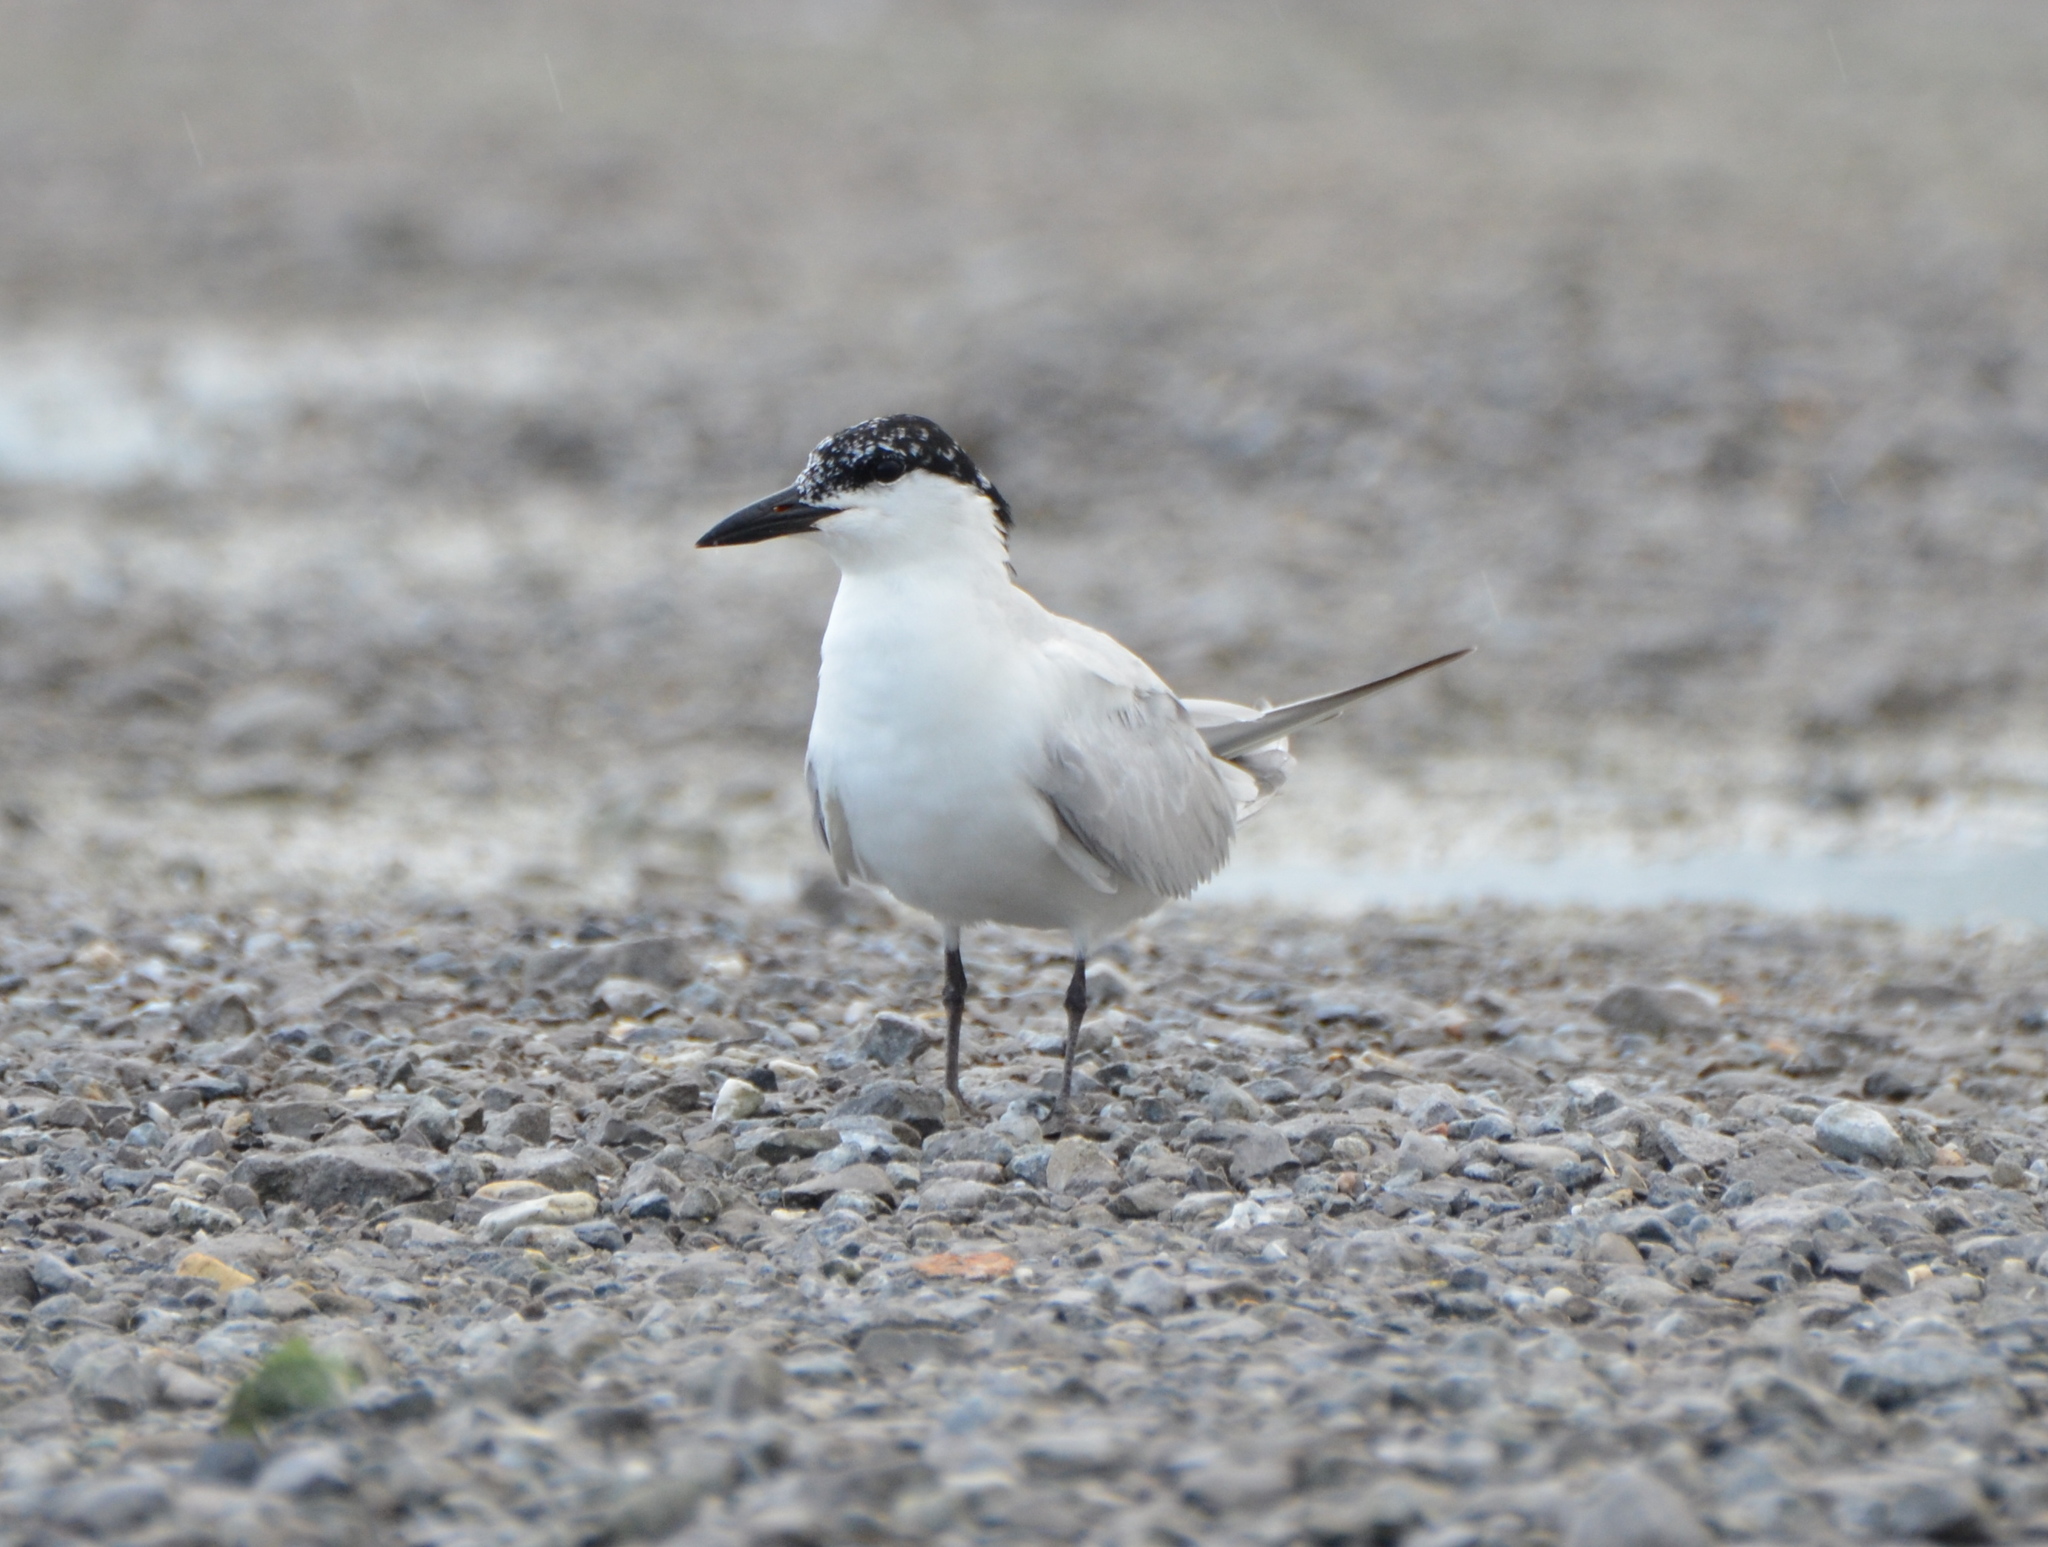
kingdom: Animalia
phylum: Chordata
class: Aves
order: Charadriiformes
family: Laridae
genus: Gelochelidon
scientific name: Gelochelidon nilotica
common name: Gull-billed tern
